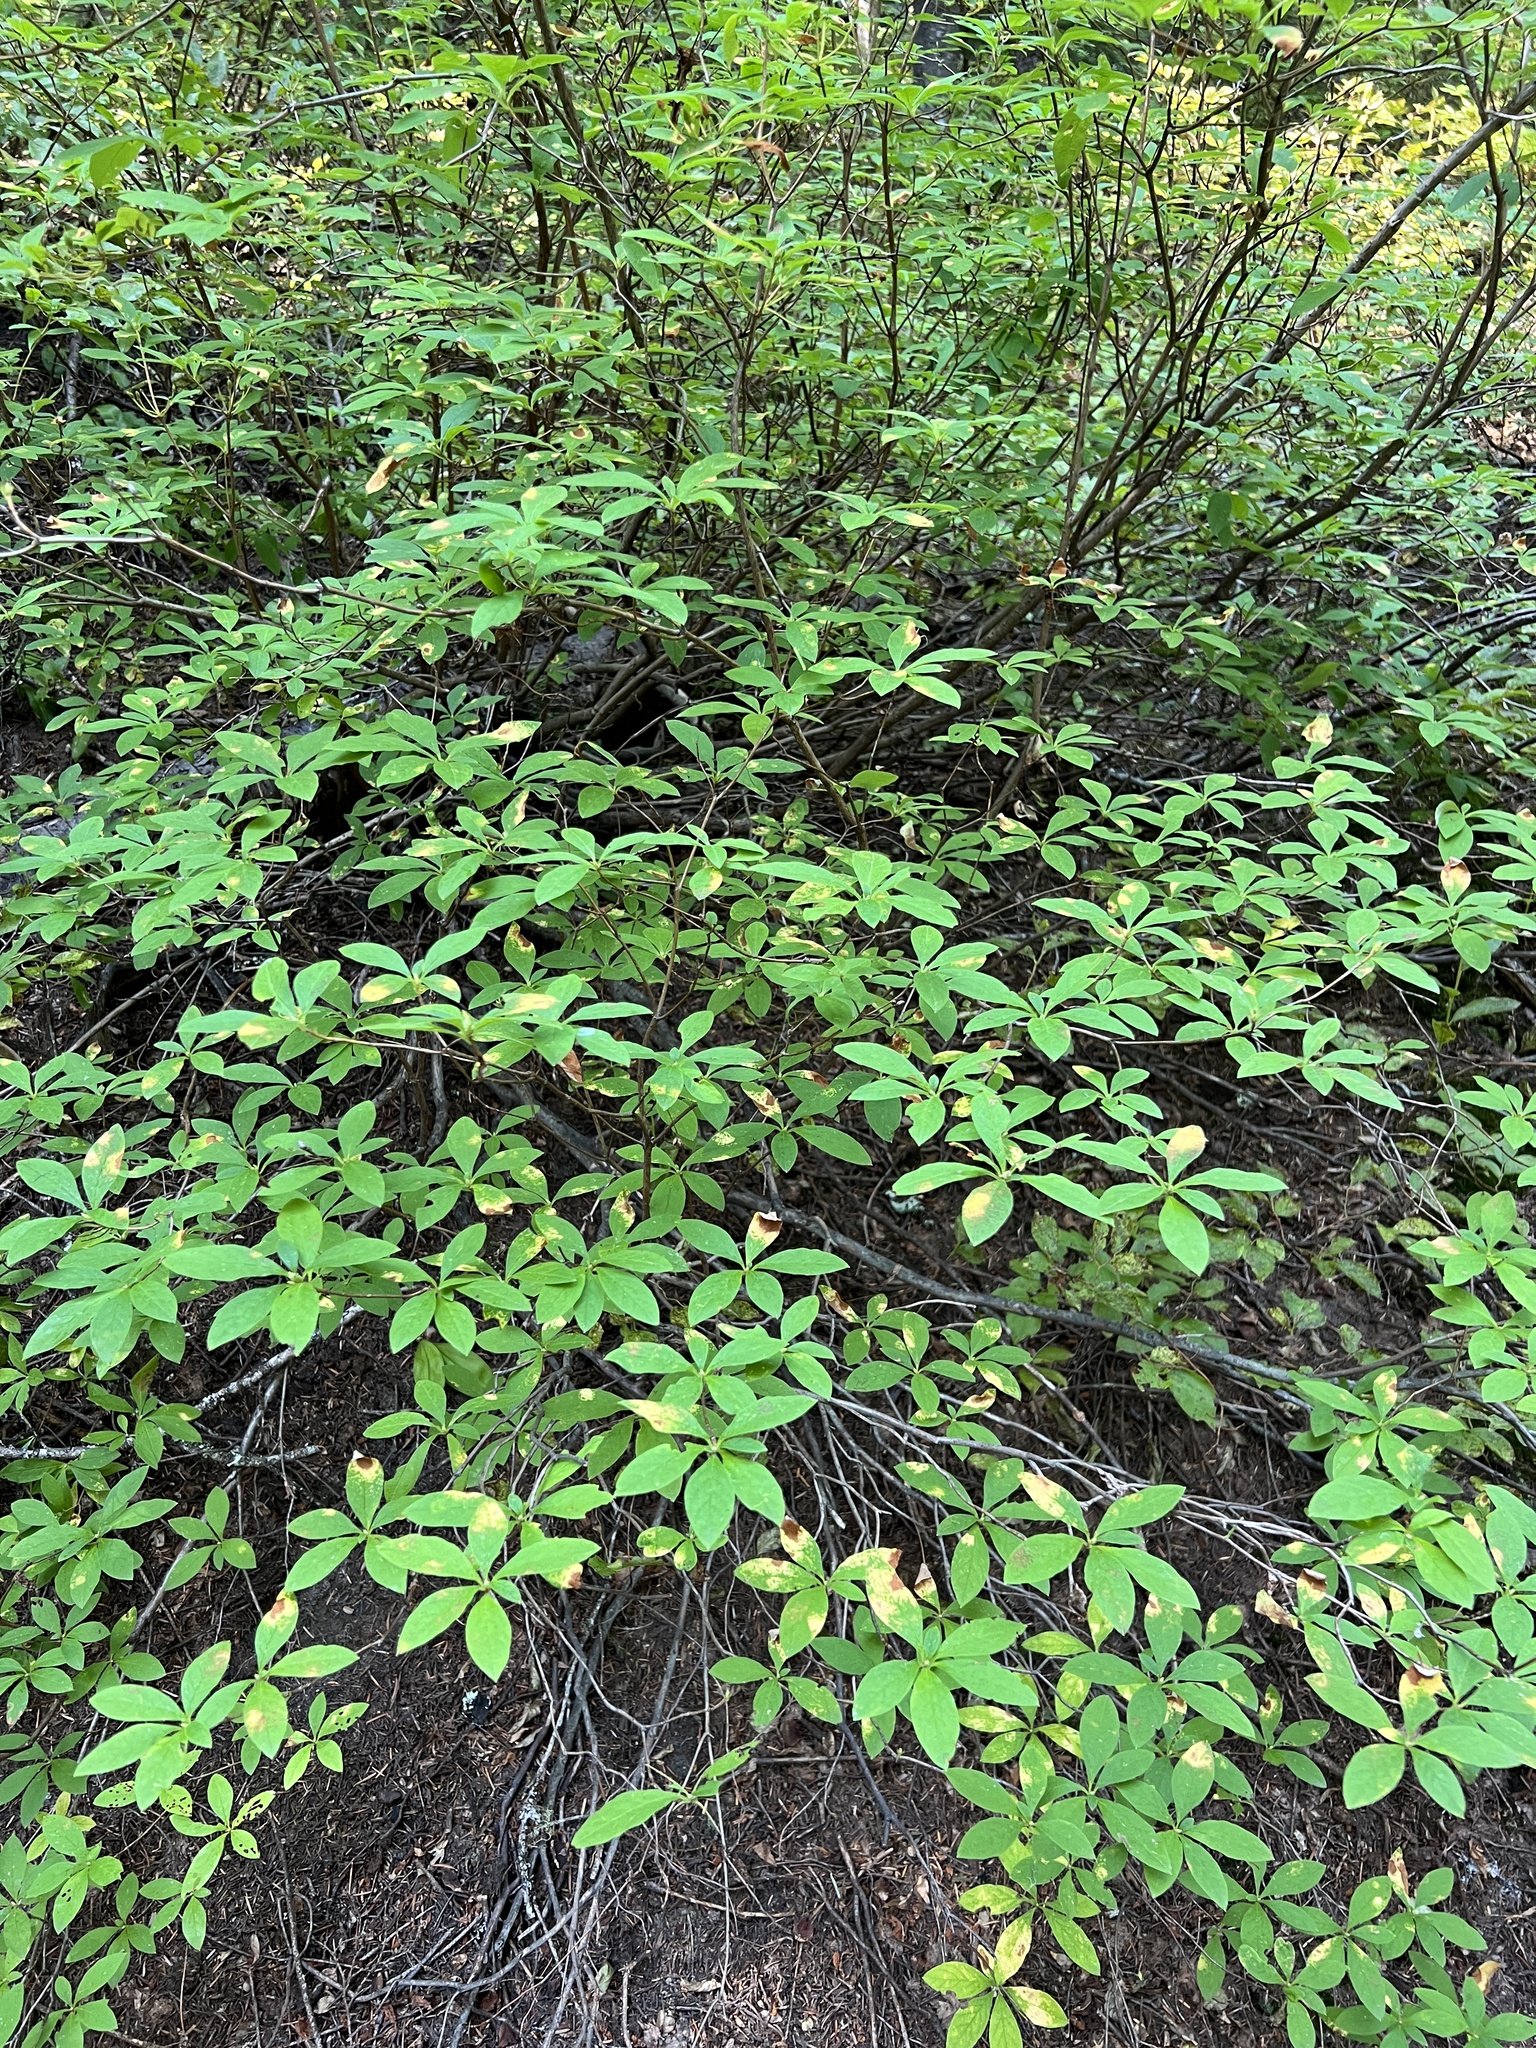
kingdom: Plantae
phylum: Tracheophyta
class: Magnoliopsida
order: Ericales
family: Ericaceae
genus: Rhododendron
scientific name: Rhododendron menziesii
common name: Pacific menziesia
